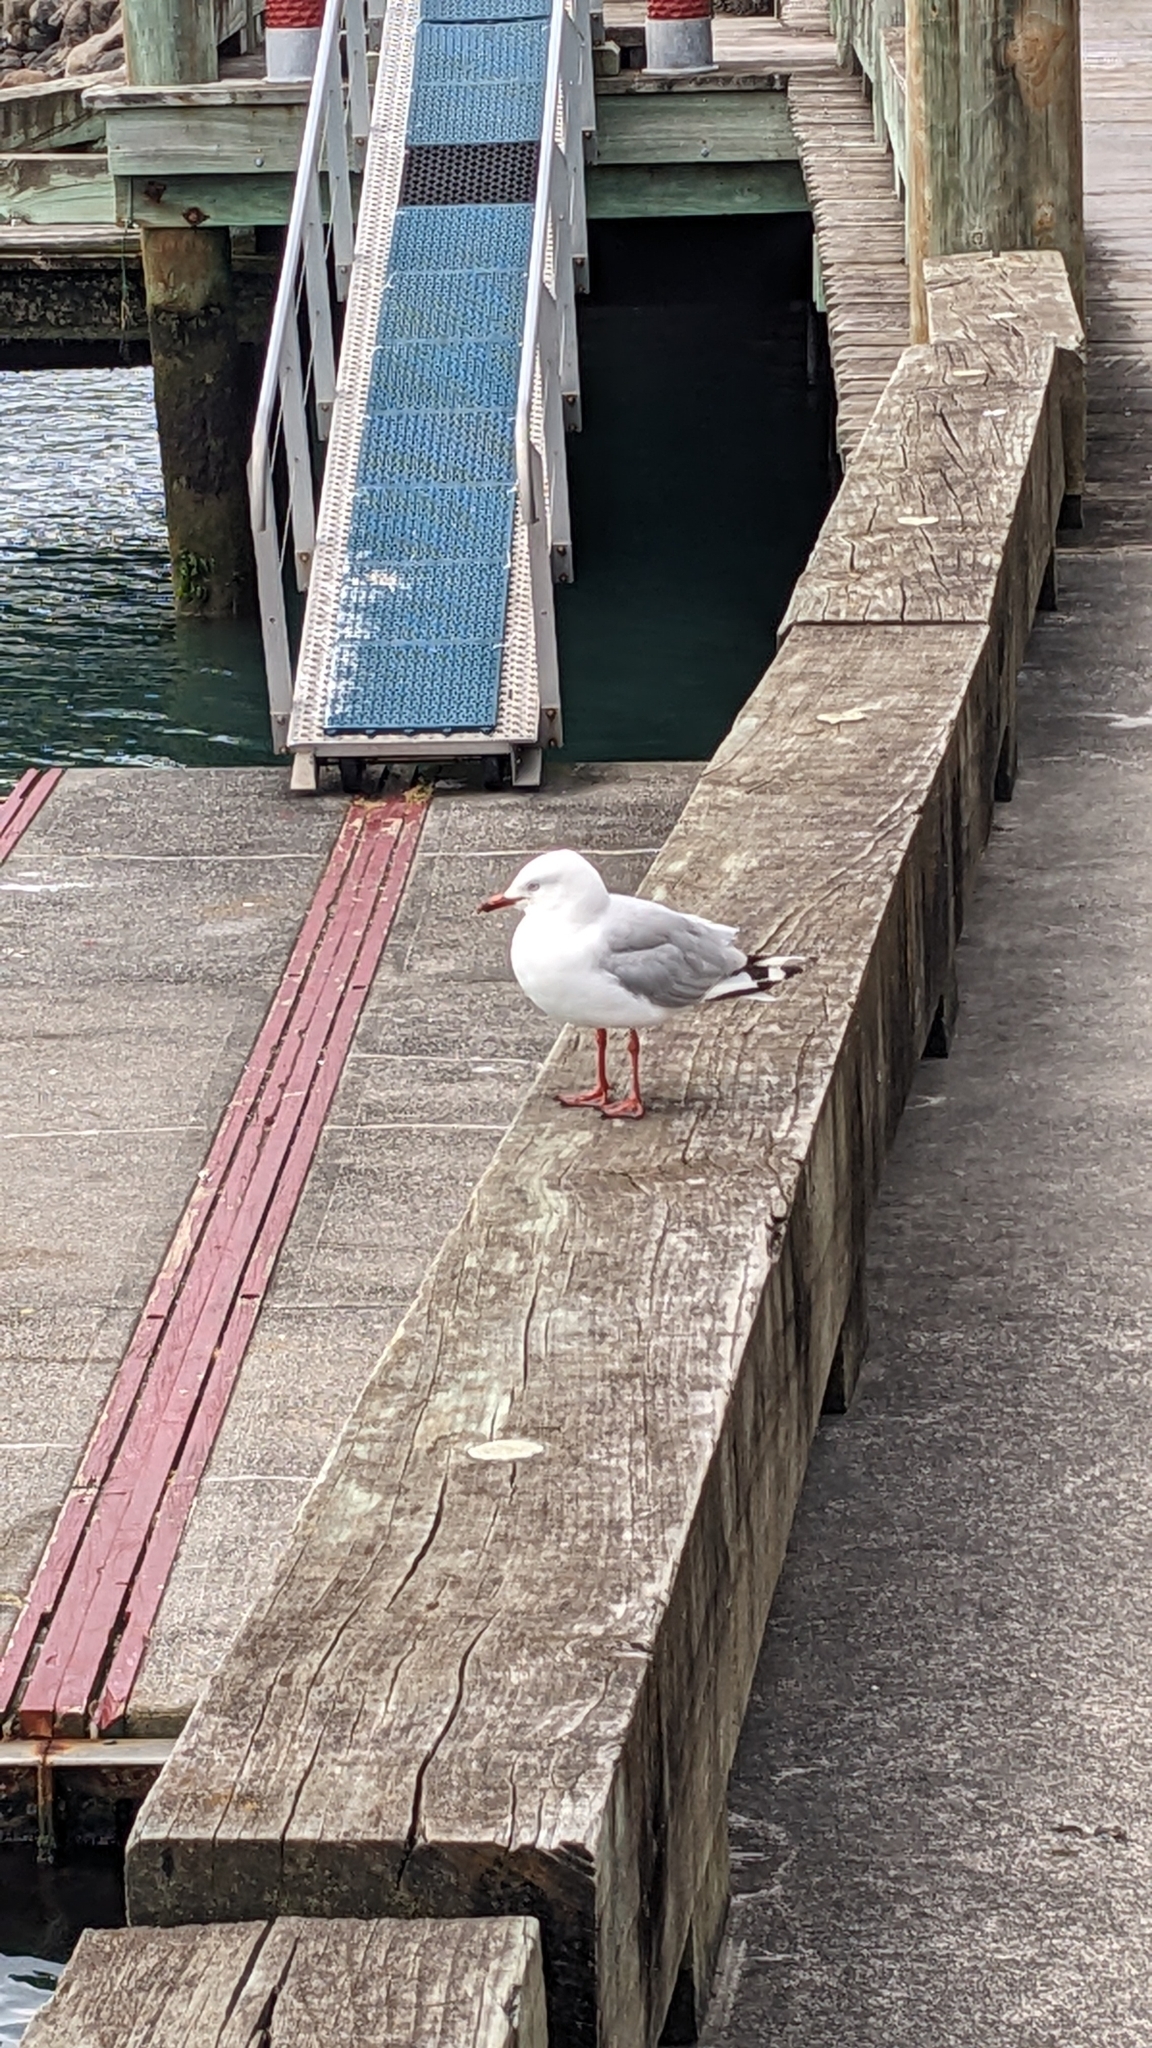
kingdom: Animalia
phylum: Chordata
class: Aves
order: Charadriiformes
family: Laridae
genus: Chroicocephalus
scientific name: Chroicocephalus novaehollandiae
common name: Silver gull
